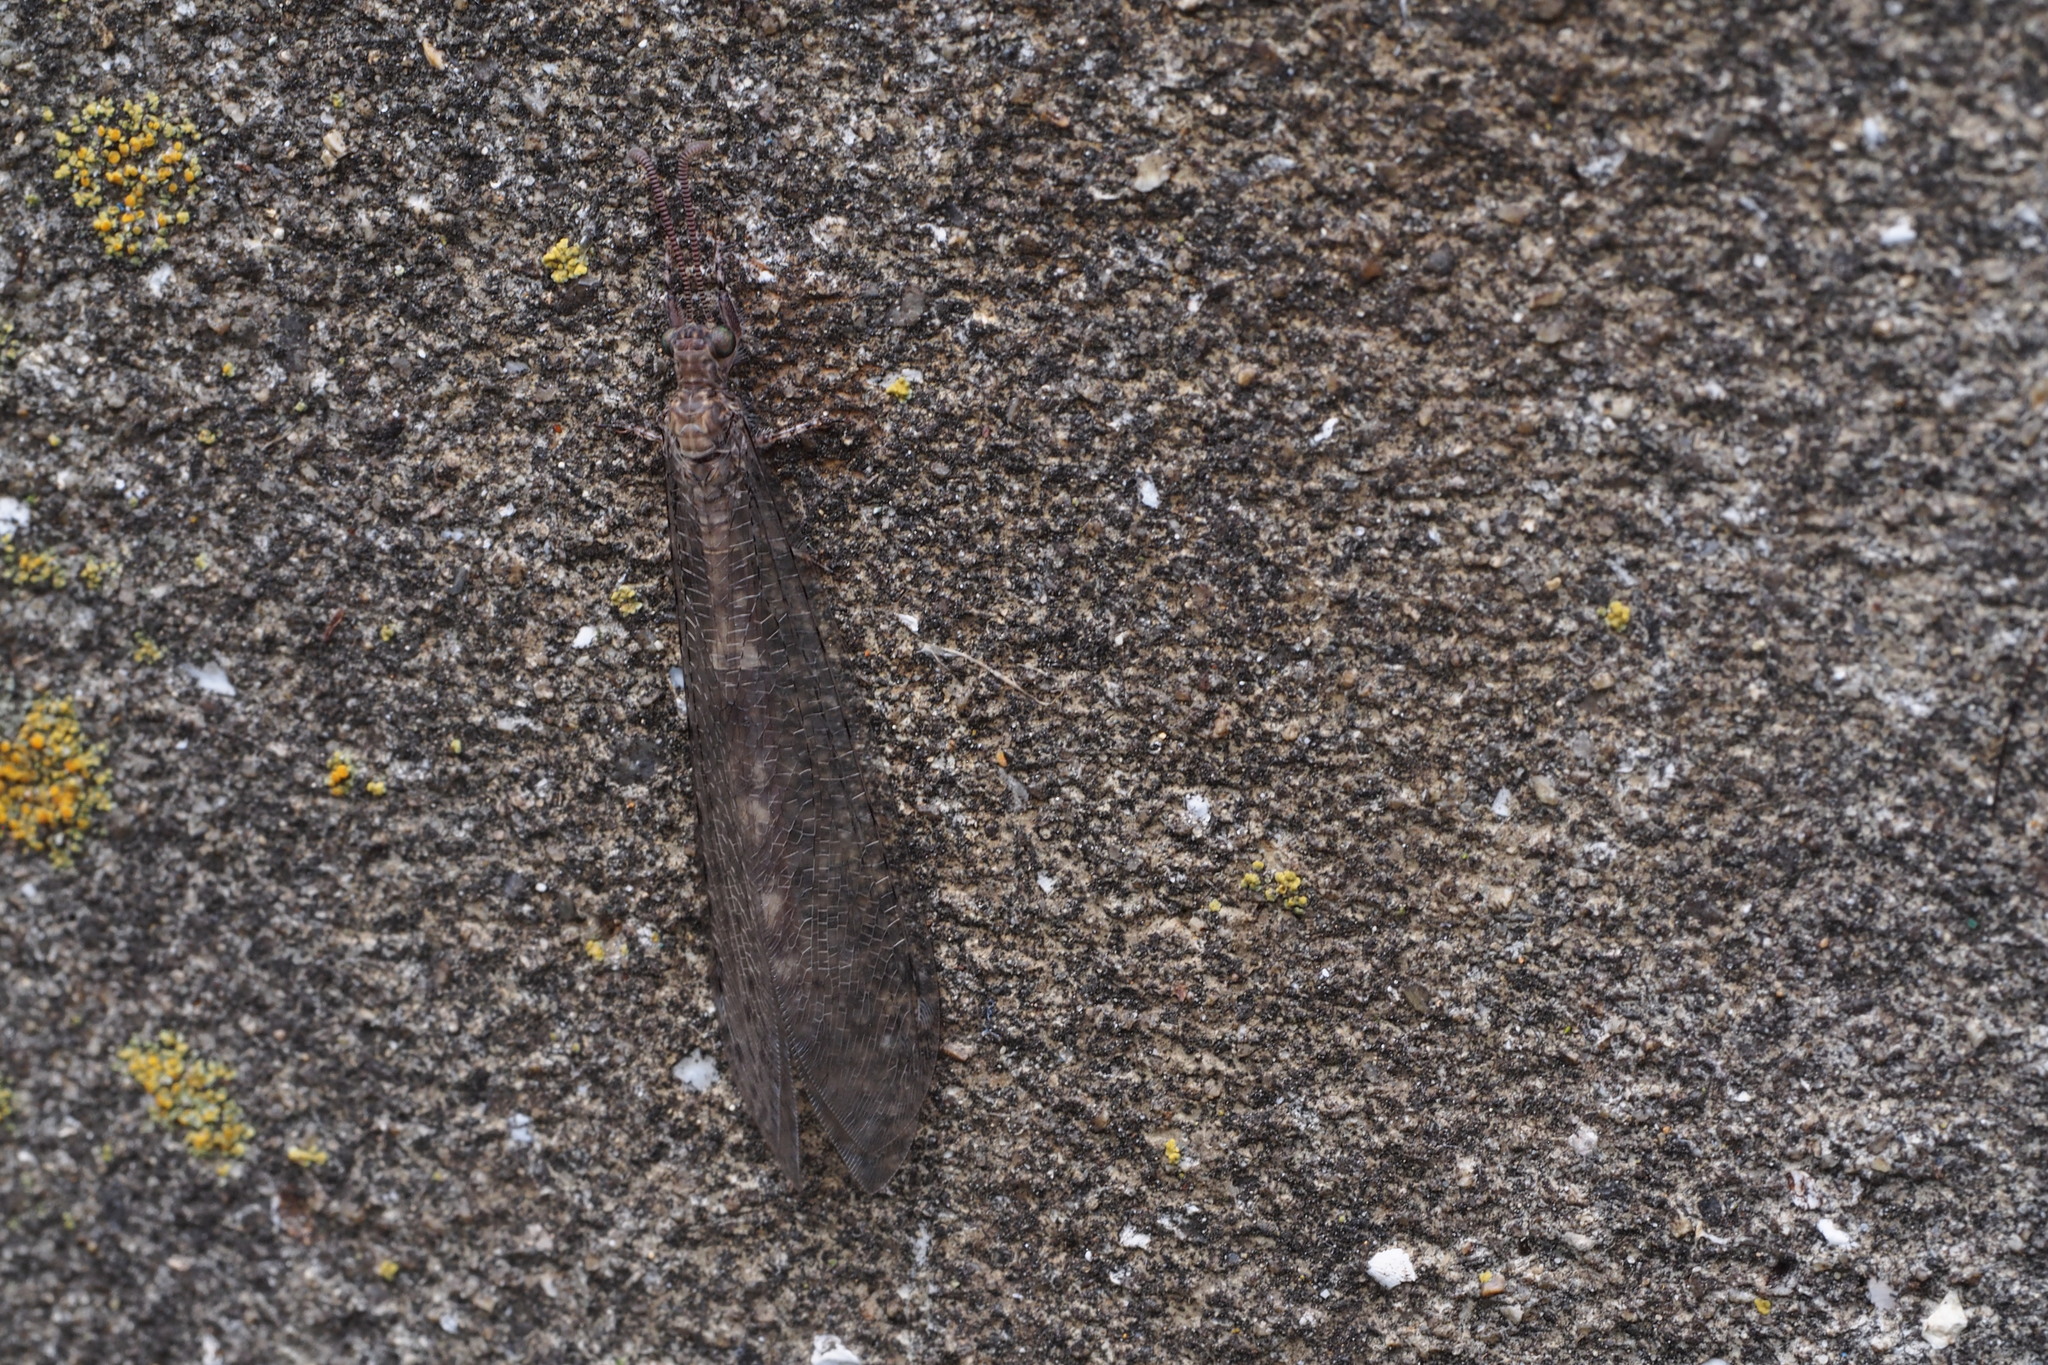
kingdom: Animalia
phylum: Arthropoda
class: Insecta
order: Neuroptera
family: Myrmeleontidae
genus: Distoleon
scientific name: Distoleon contubernalis
